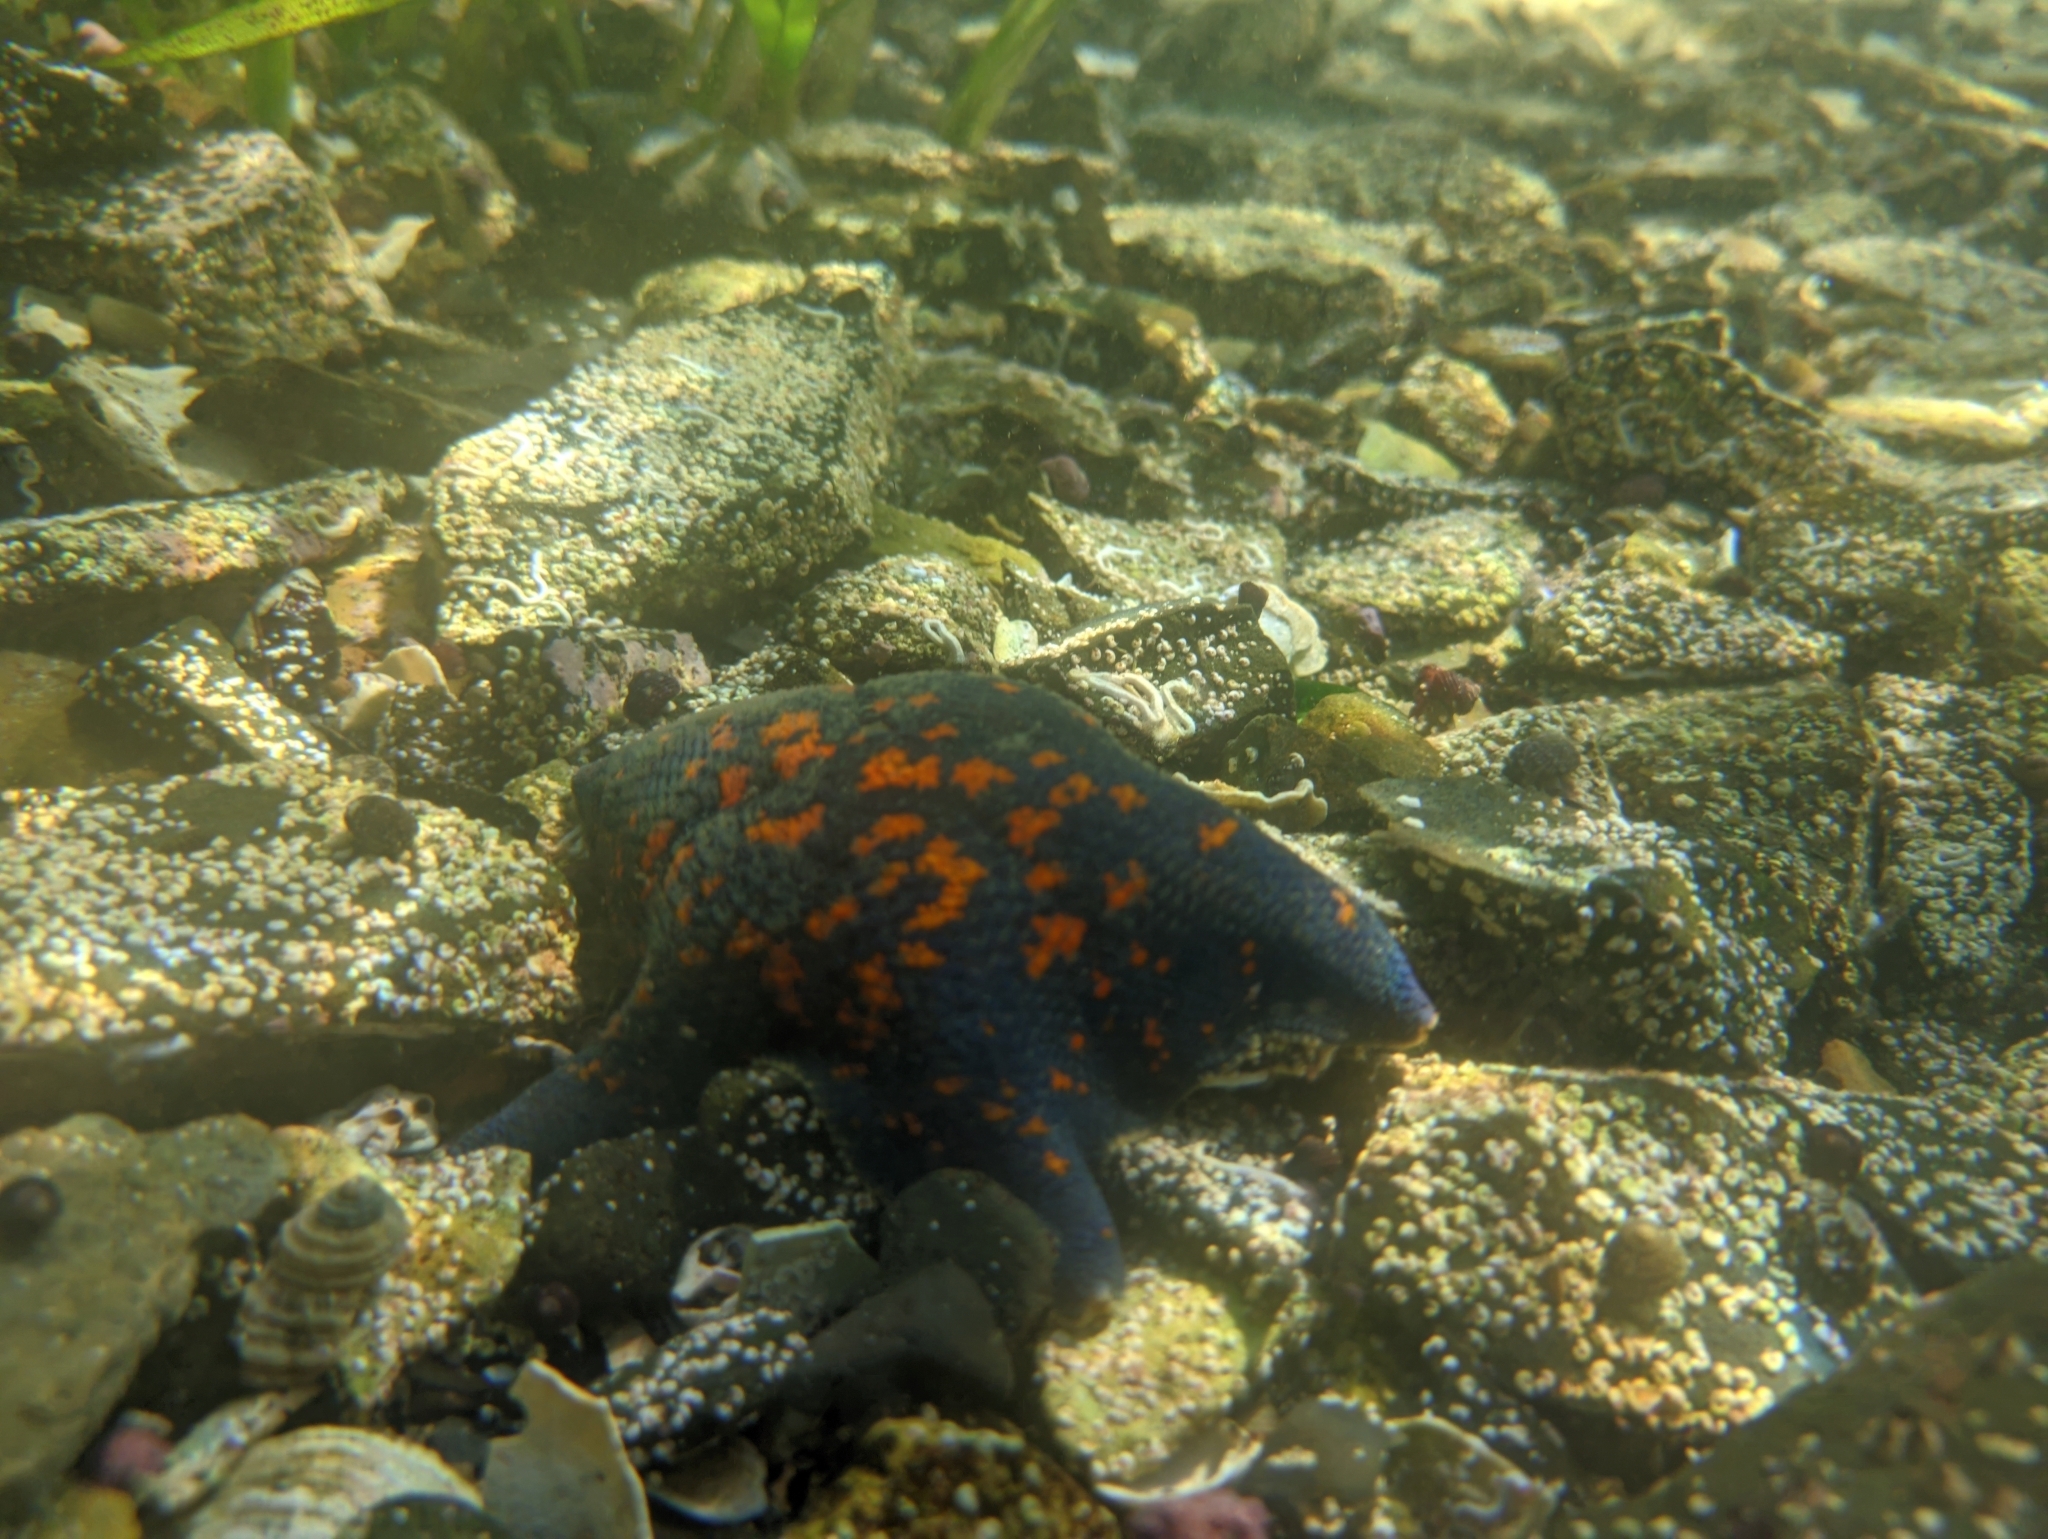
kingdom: Animalia
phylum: Echinodermata
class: Asteroidea
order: Valvatida
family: Asterinidae
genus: Patiria
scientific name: Patiria pectinifera
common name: Blue bat star
